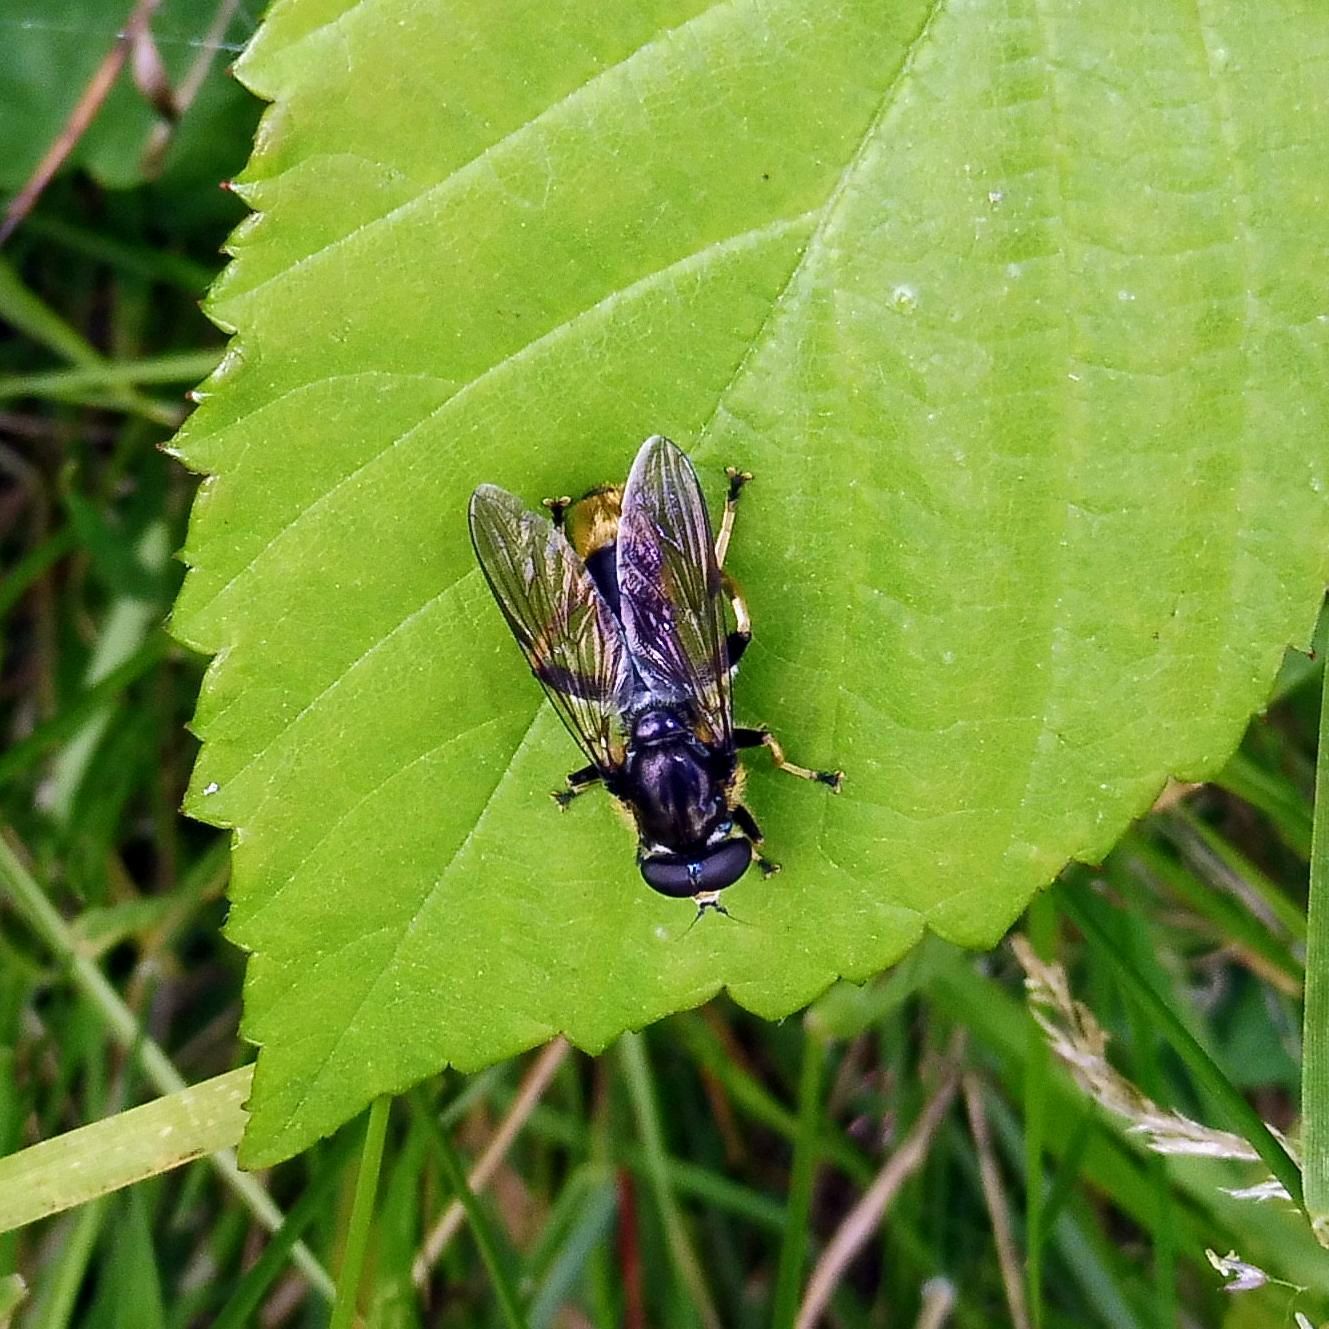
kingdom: Animalia
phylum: Arthropoda
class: Insecta
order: Diptera
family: Syrphidae
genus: Xylota
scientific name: Xylota sylvarum
